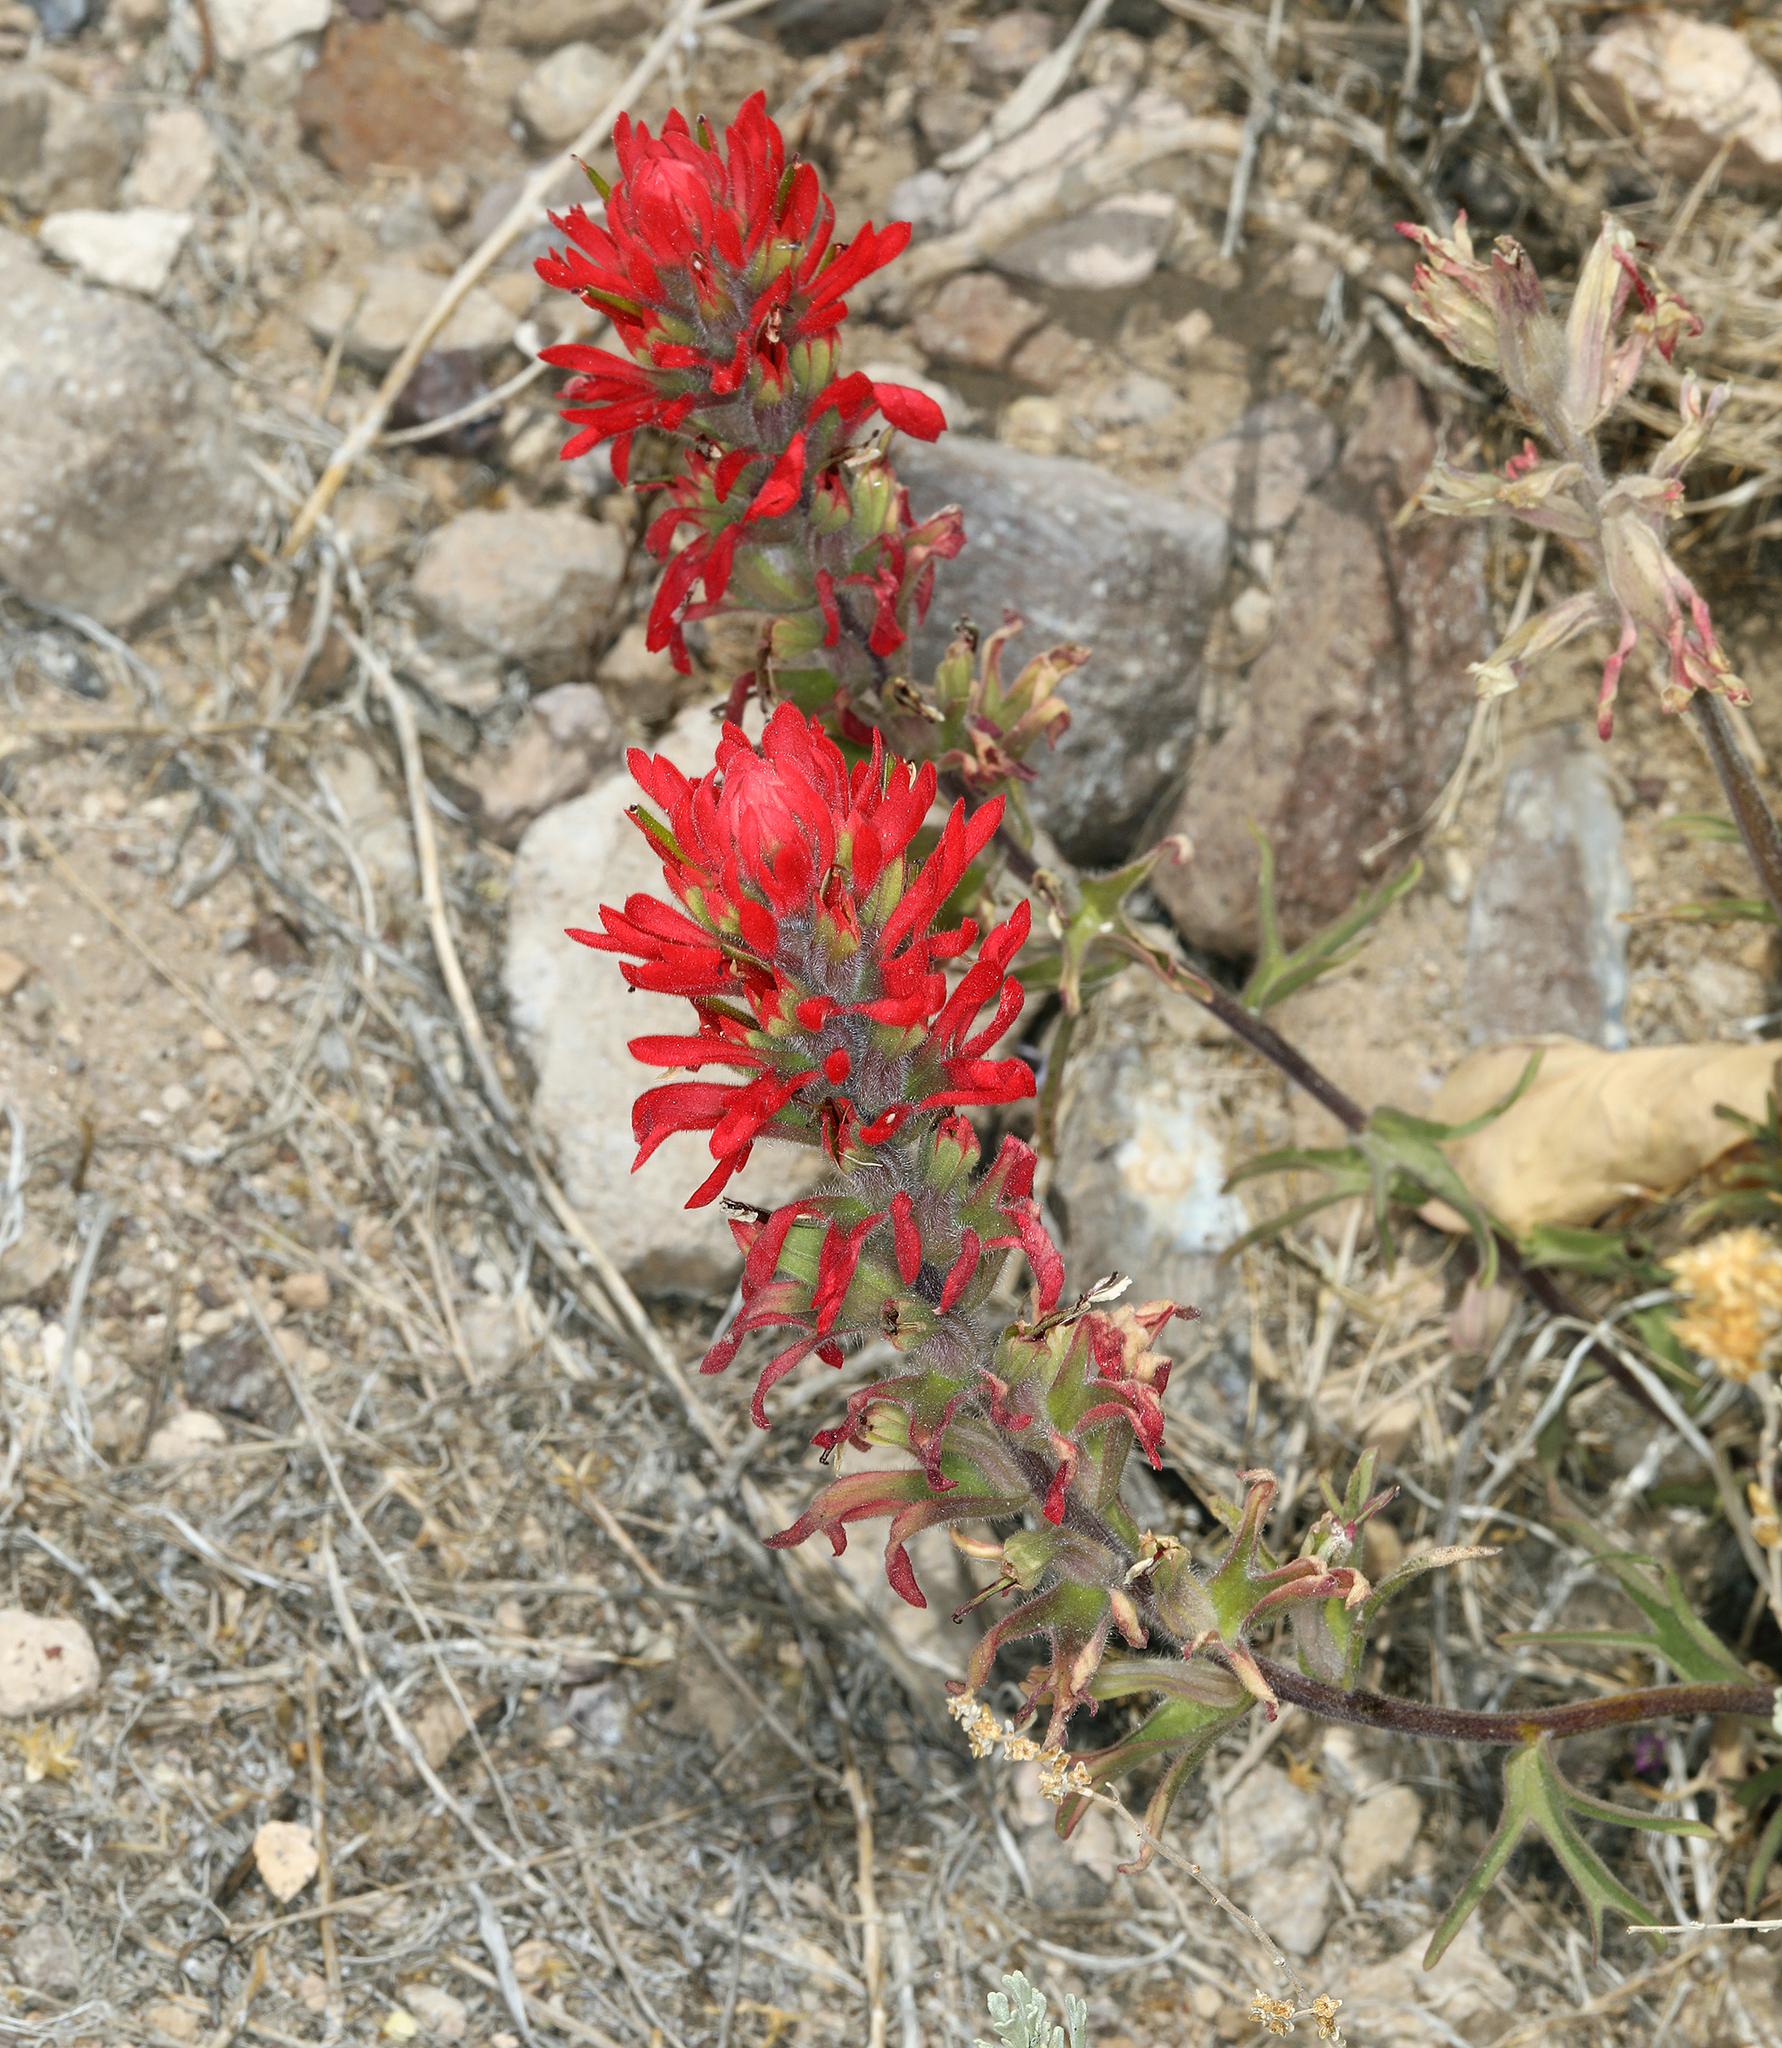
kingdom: Plantae
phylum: Tracheophyta
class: Magnoliopsida
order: Lamiales
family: Orobanchaceae
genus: Castilleja
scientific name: Castilleja chromosa
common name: Desert paintbrush
